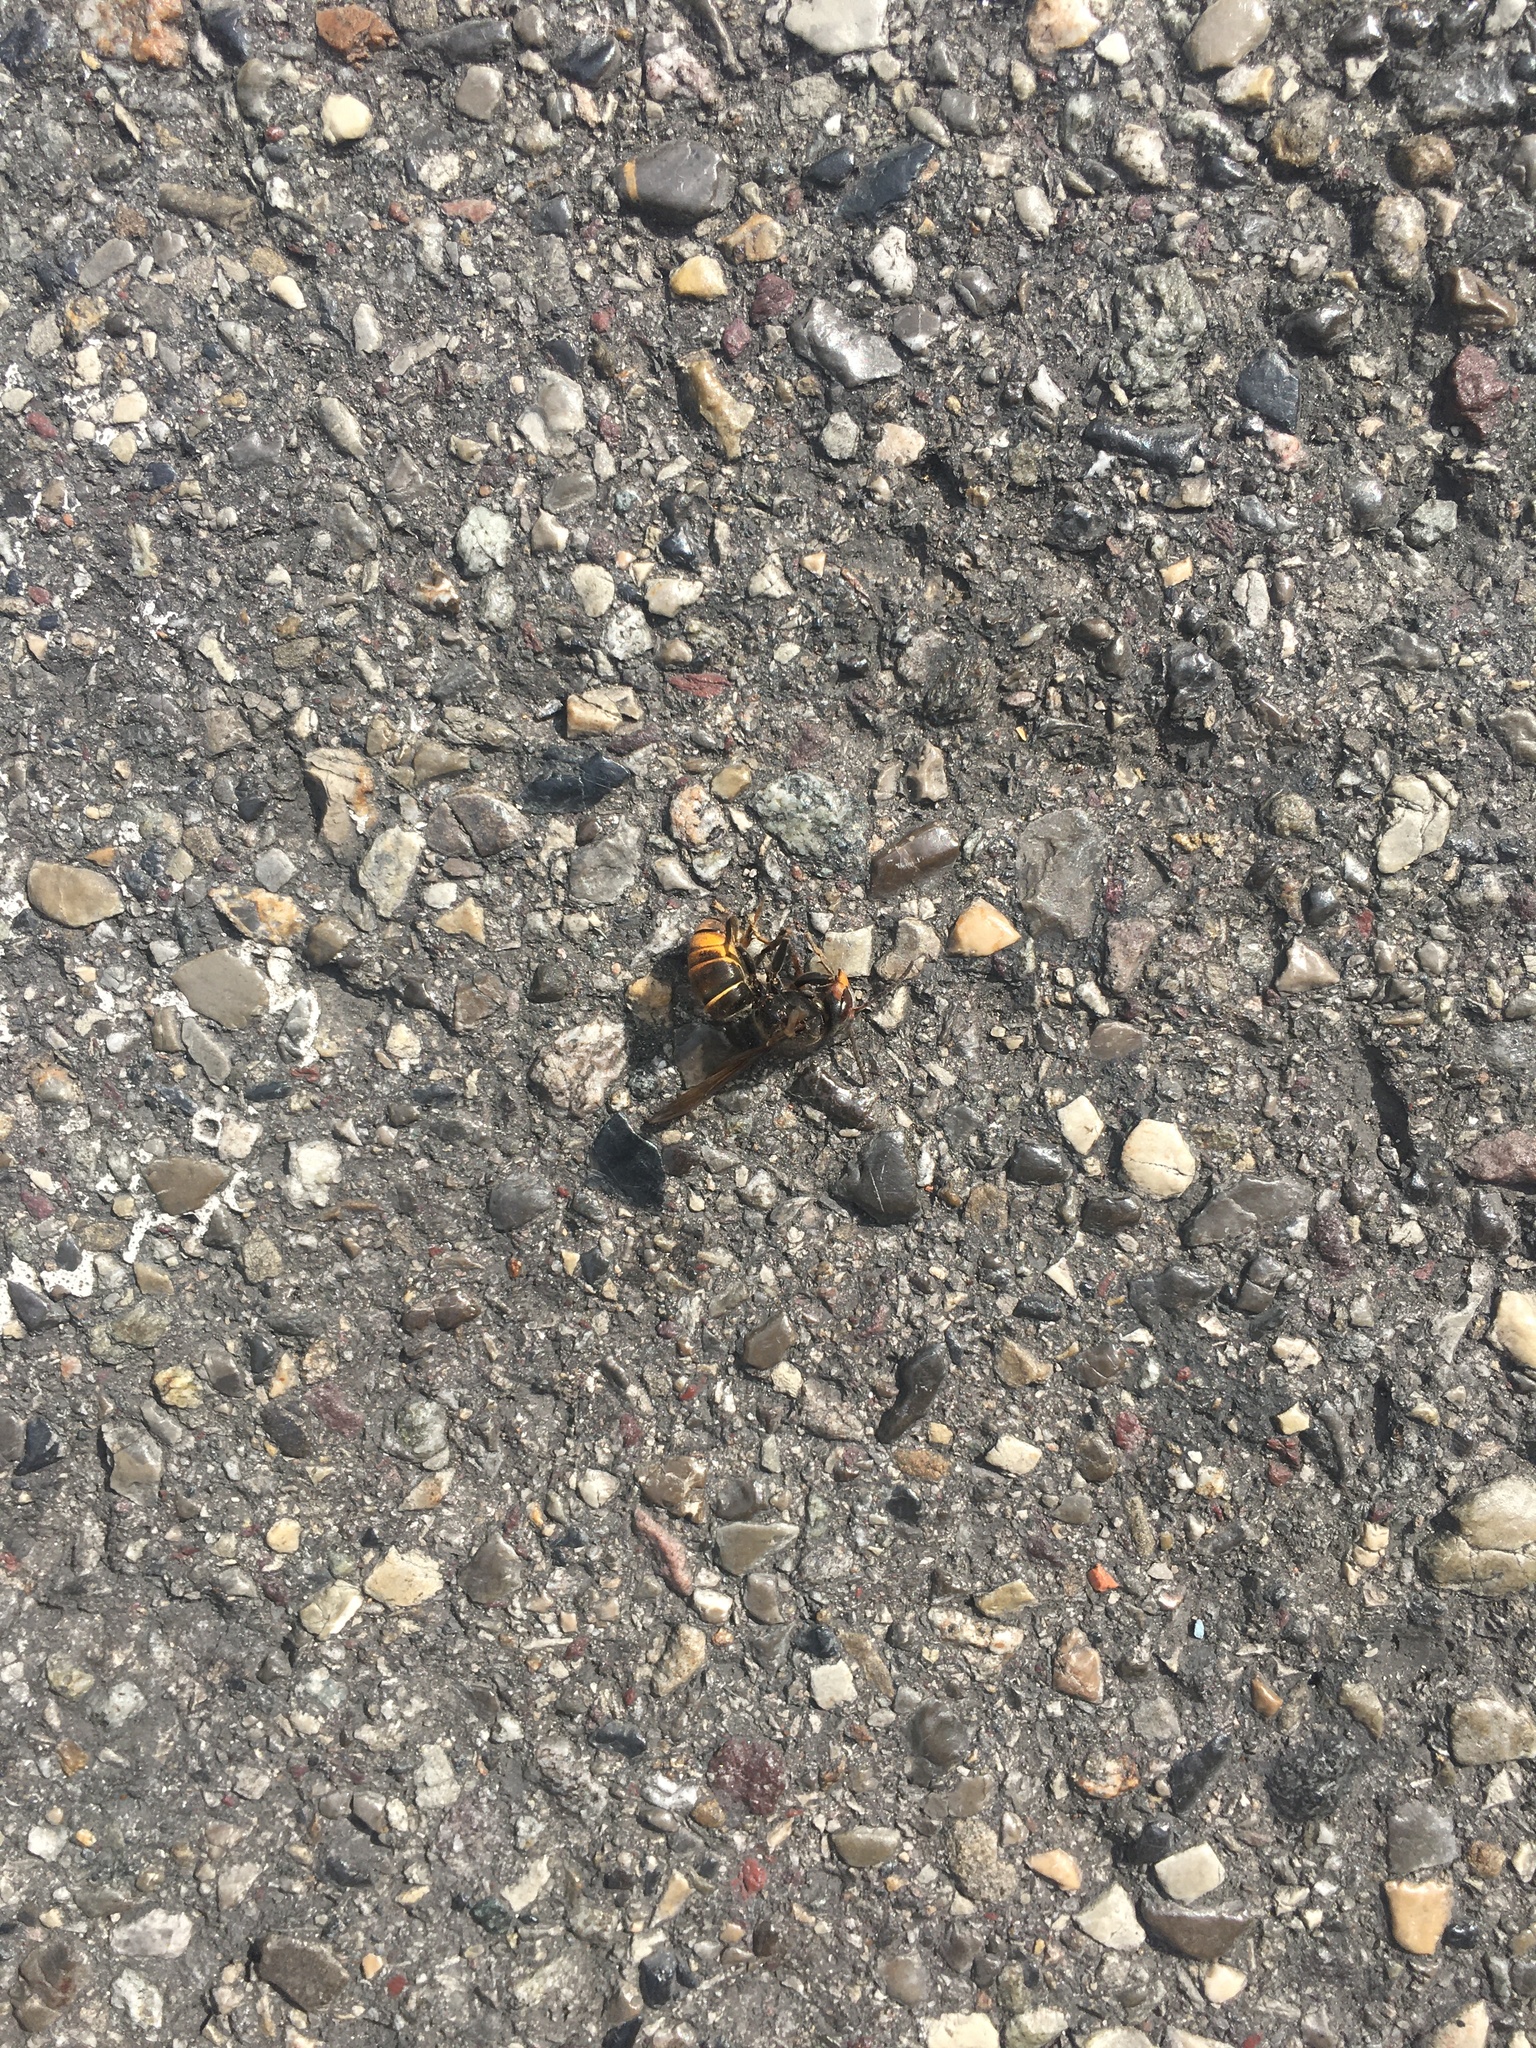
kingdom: Animalia
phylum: Arthropoda
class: Insecta
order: Hymenoptera
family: Vespidae
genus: Vespa
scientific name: Vespa velutina
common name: Asian hornet
